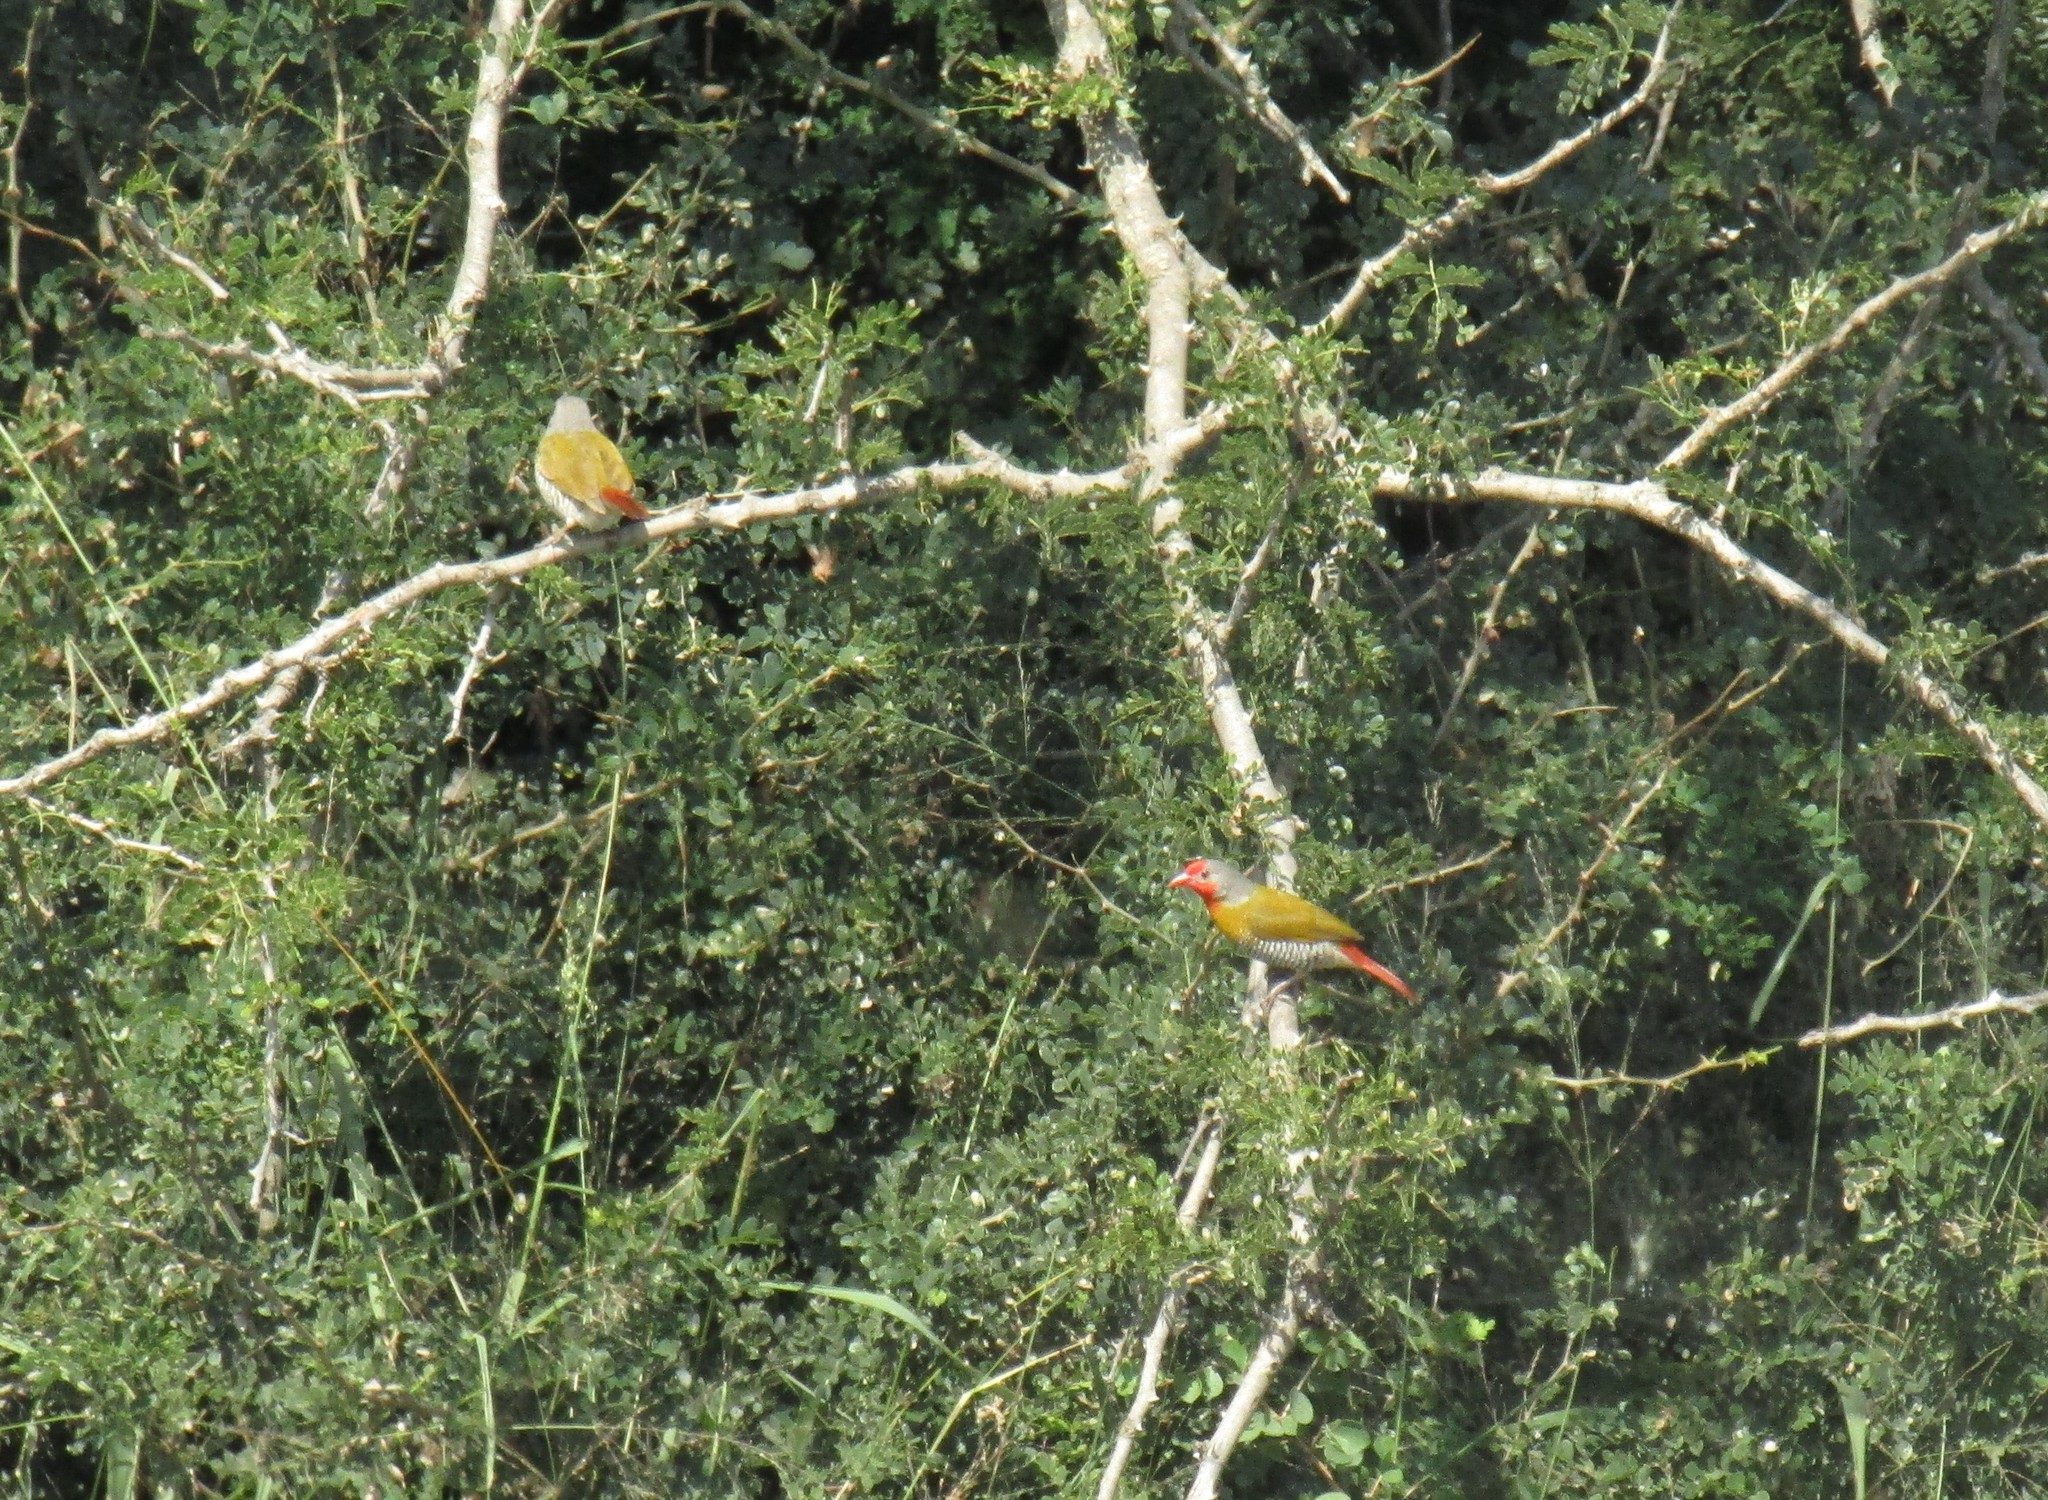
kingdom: Animalia
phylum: Chordata
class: Aves
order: Passeriformes
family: Estrildidae
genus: Pytilia
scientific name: Pytilia melba
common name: Green-winged pytilia
